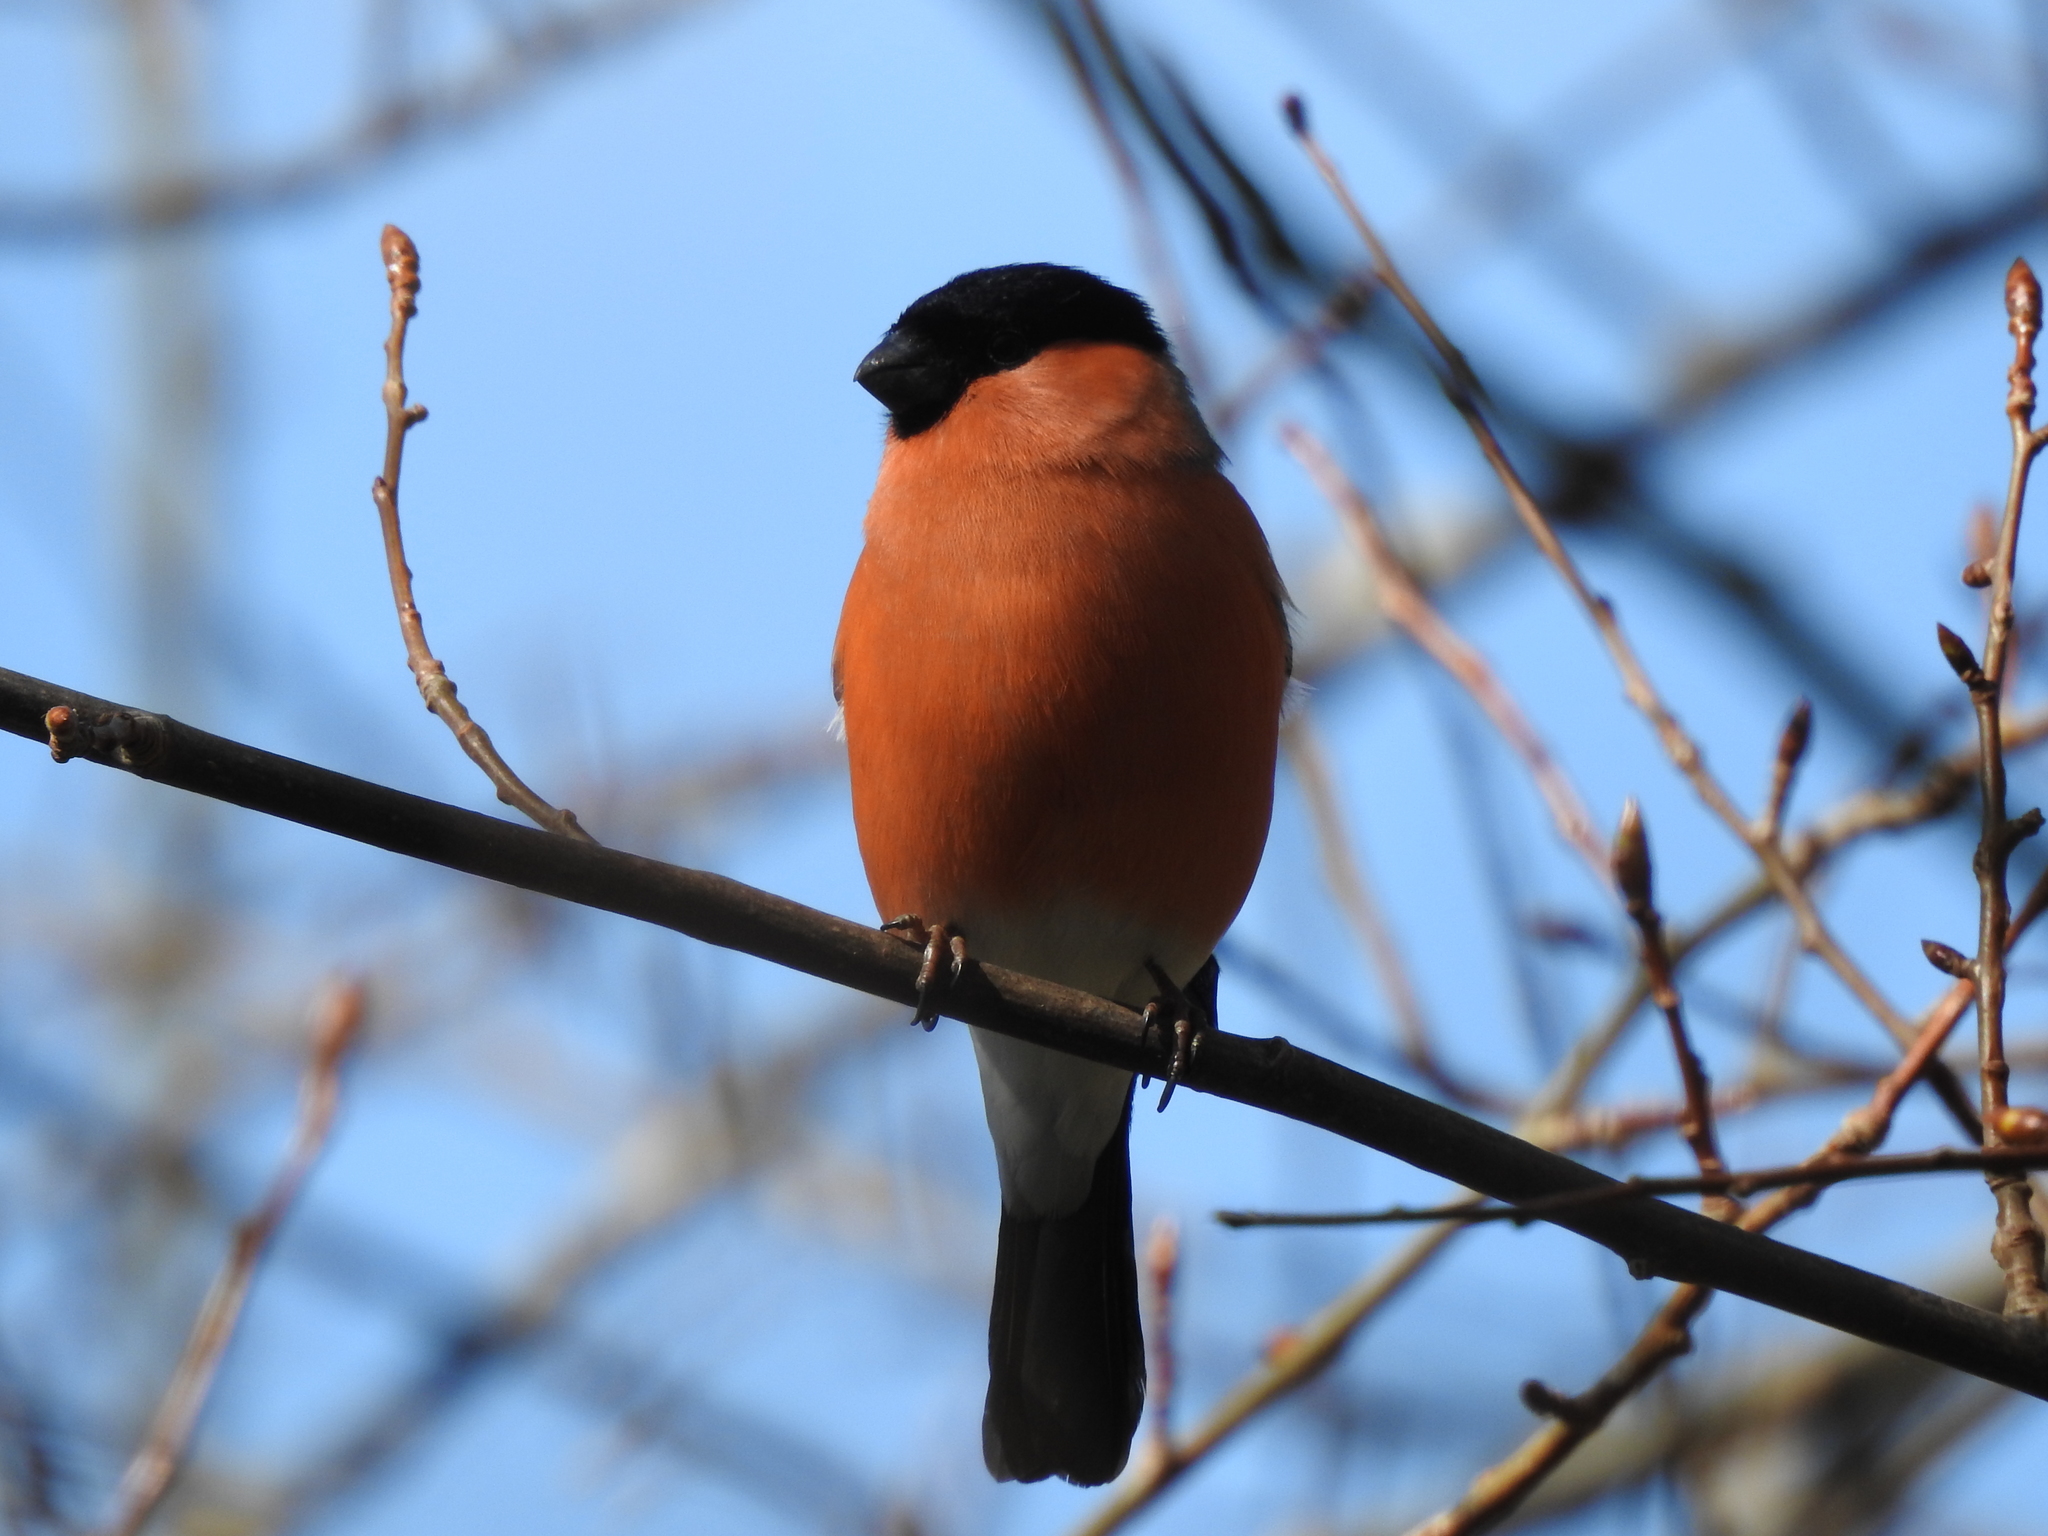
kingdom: Animalia
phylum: Chordata
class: Aves
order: Passeriformes
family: Fringillidae
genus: Pyrrhula
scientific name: Pyrrhula pyrrhula
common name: Eurasian bullfinch
